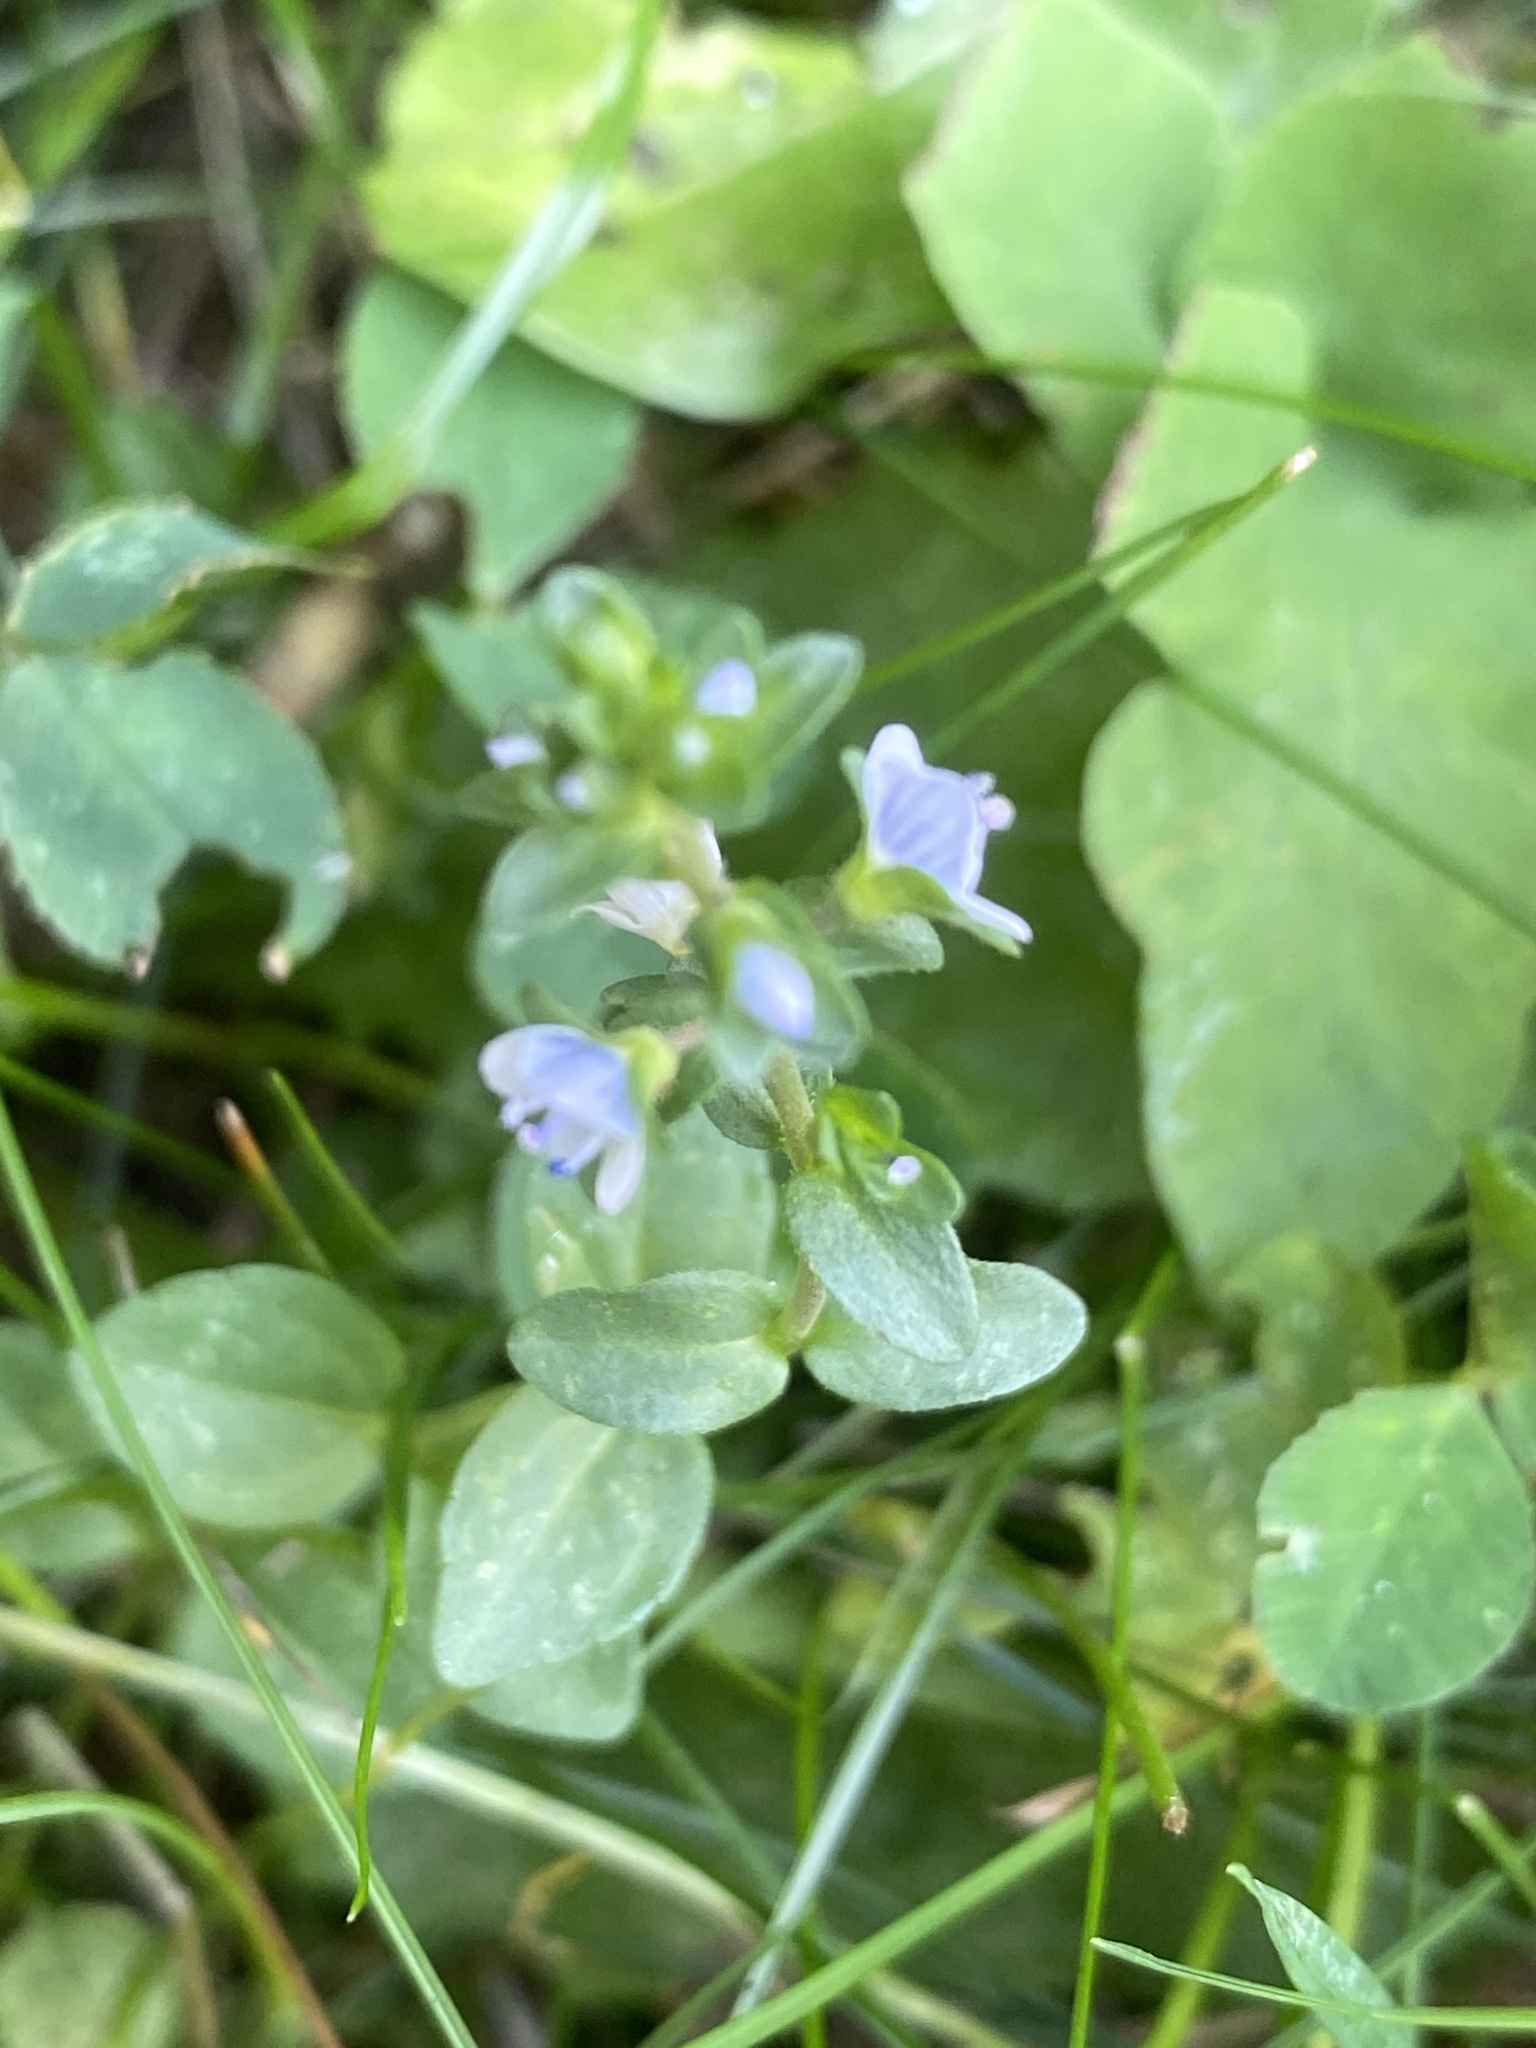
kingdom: Plantae
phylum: Tracheophyta
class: Magnoliopsida
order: Lamiales
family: Plantaginaceae
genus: Veronica
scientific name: Veronica serpyllifolia
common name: Thyme-leaved speedwell
